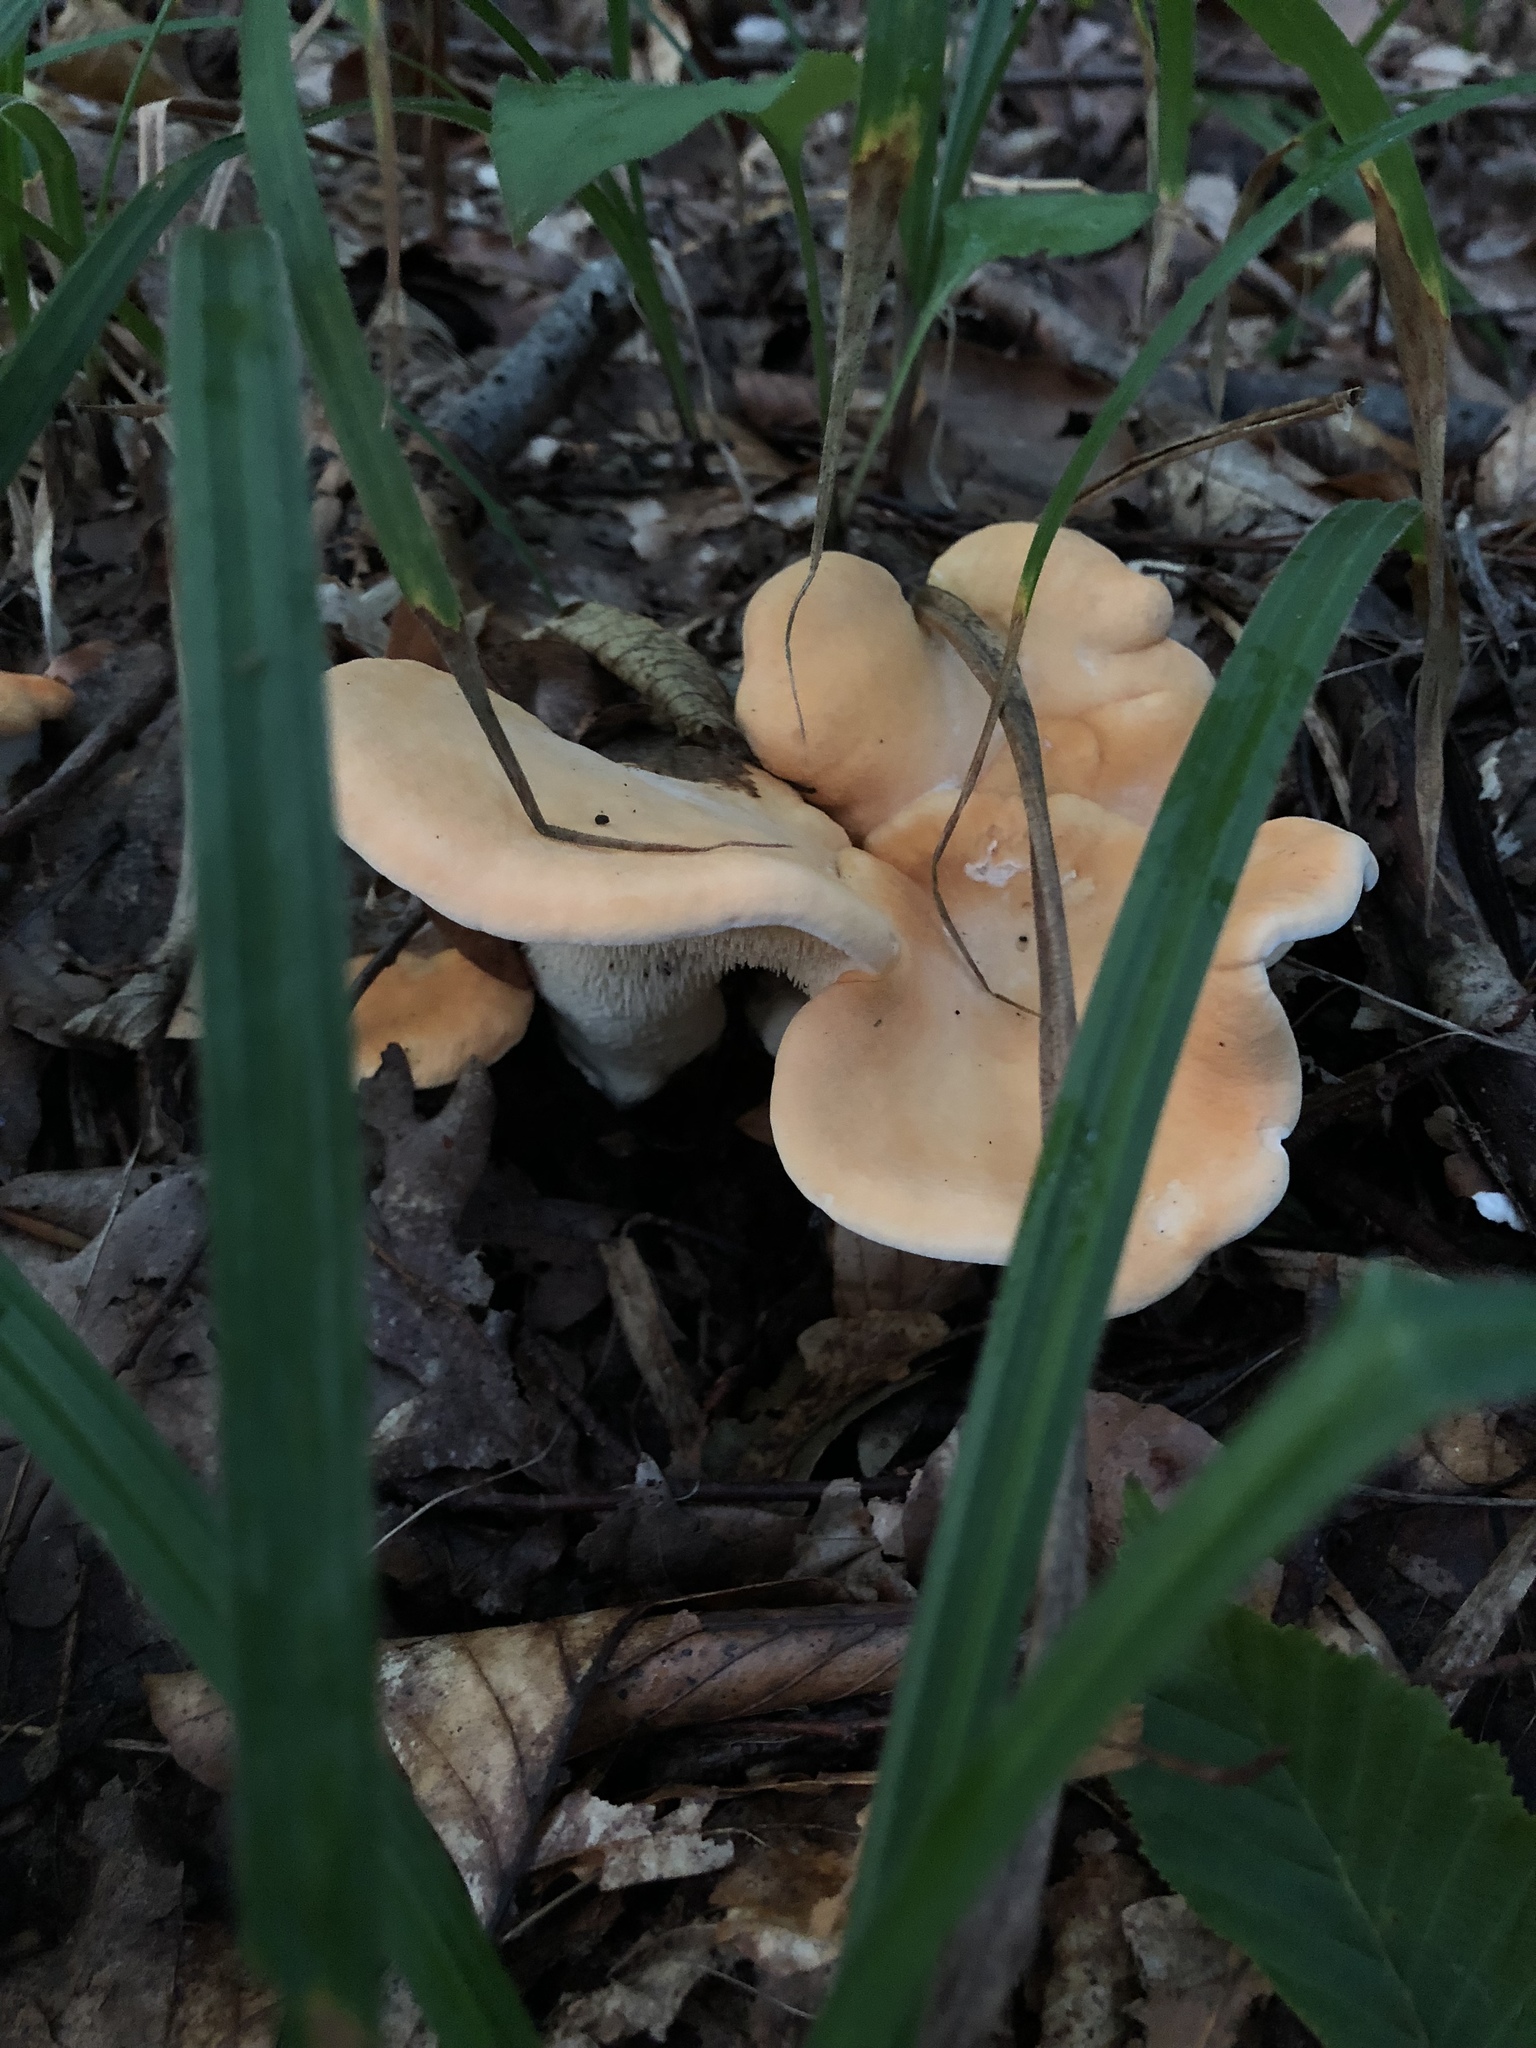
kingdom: Fungi
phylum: Basidiomycota
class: Agaricomycetes
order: Cantharellales
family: Hydnaceae
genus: Hydnum
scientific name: Hydnum repandum
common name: Wood hedgehog
